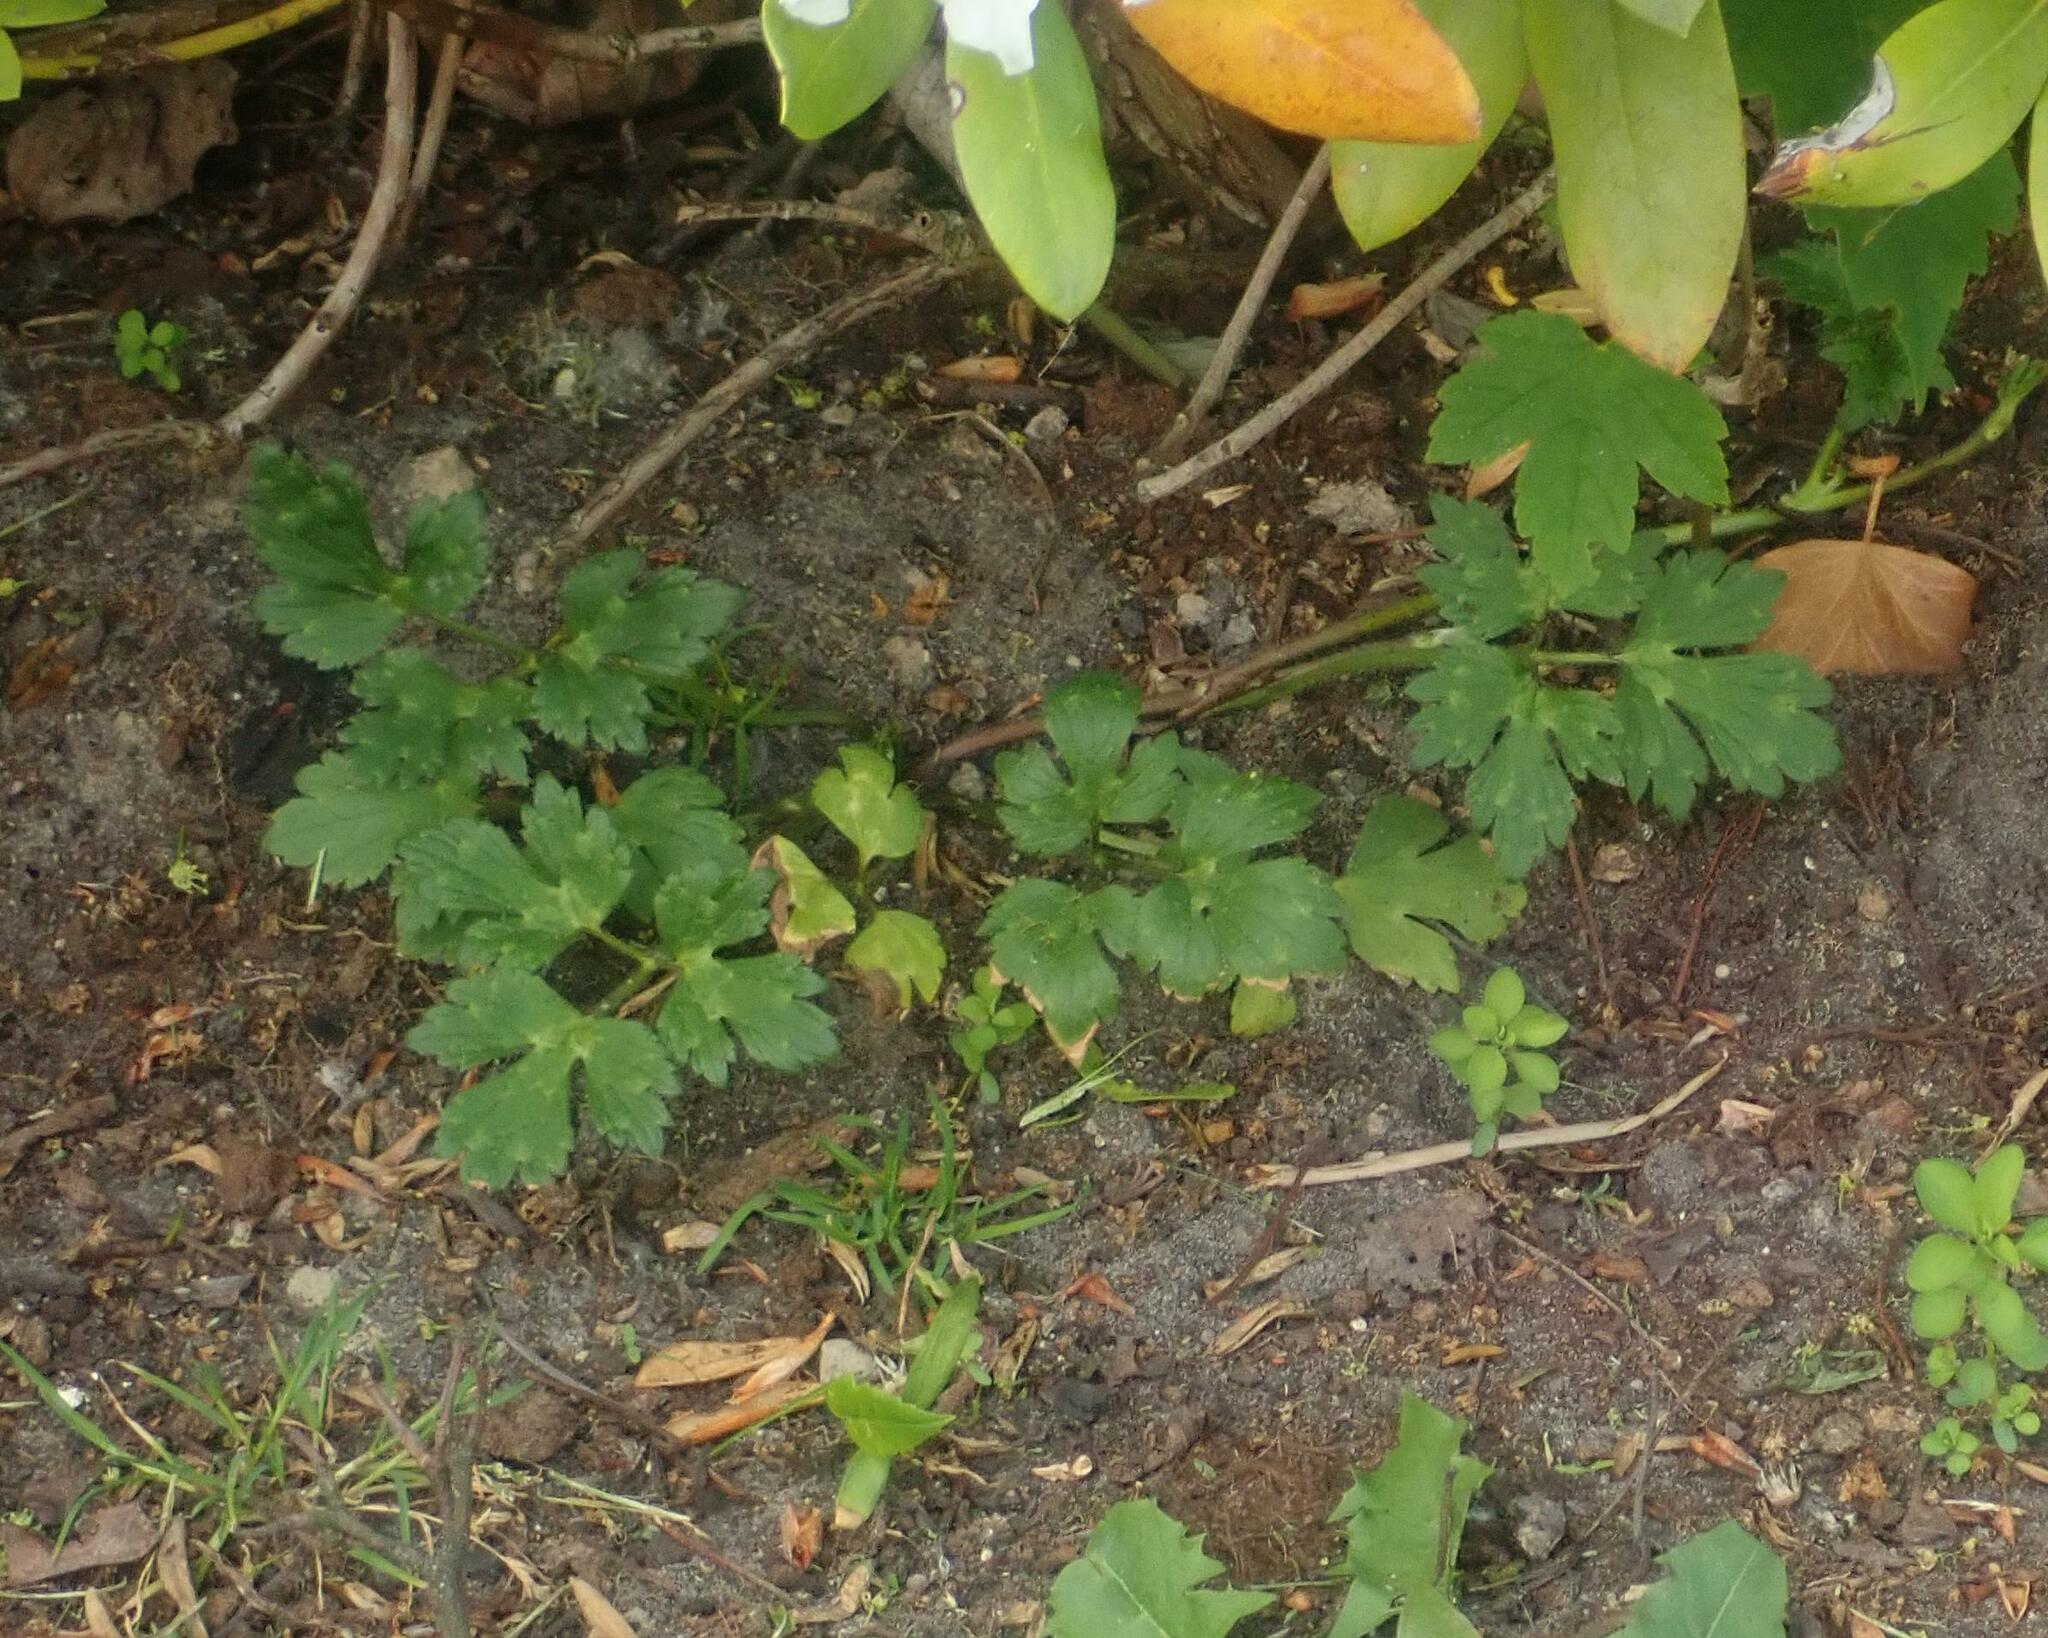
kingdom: Plantae
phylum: Tracheophyta
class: Magnoliopsida
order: Ranunculales
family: Ranunculaceae
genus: Ranunculus
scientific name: Ranunculus repens
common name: Creeping buttercup
